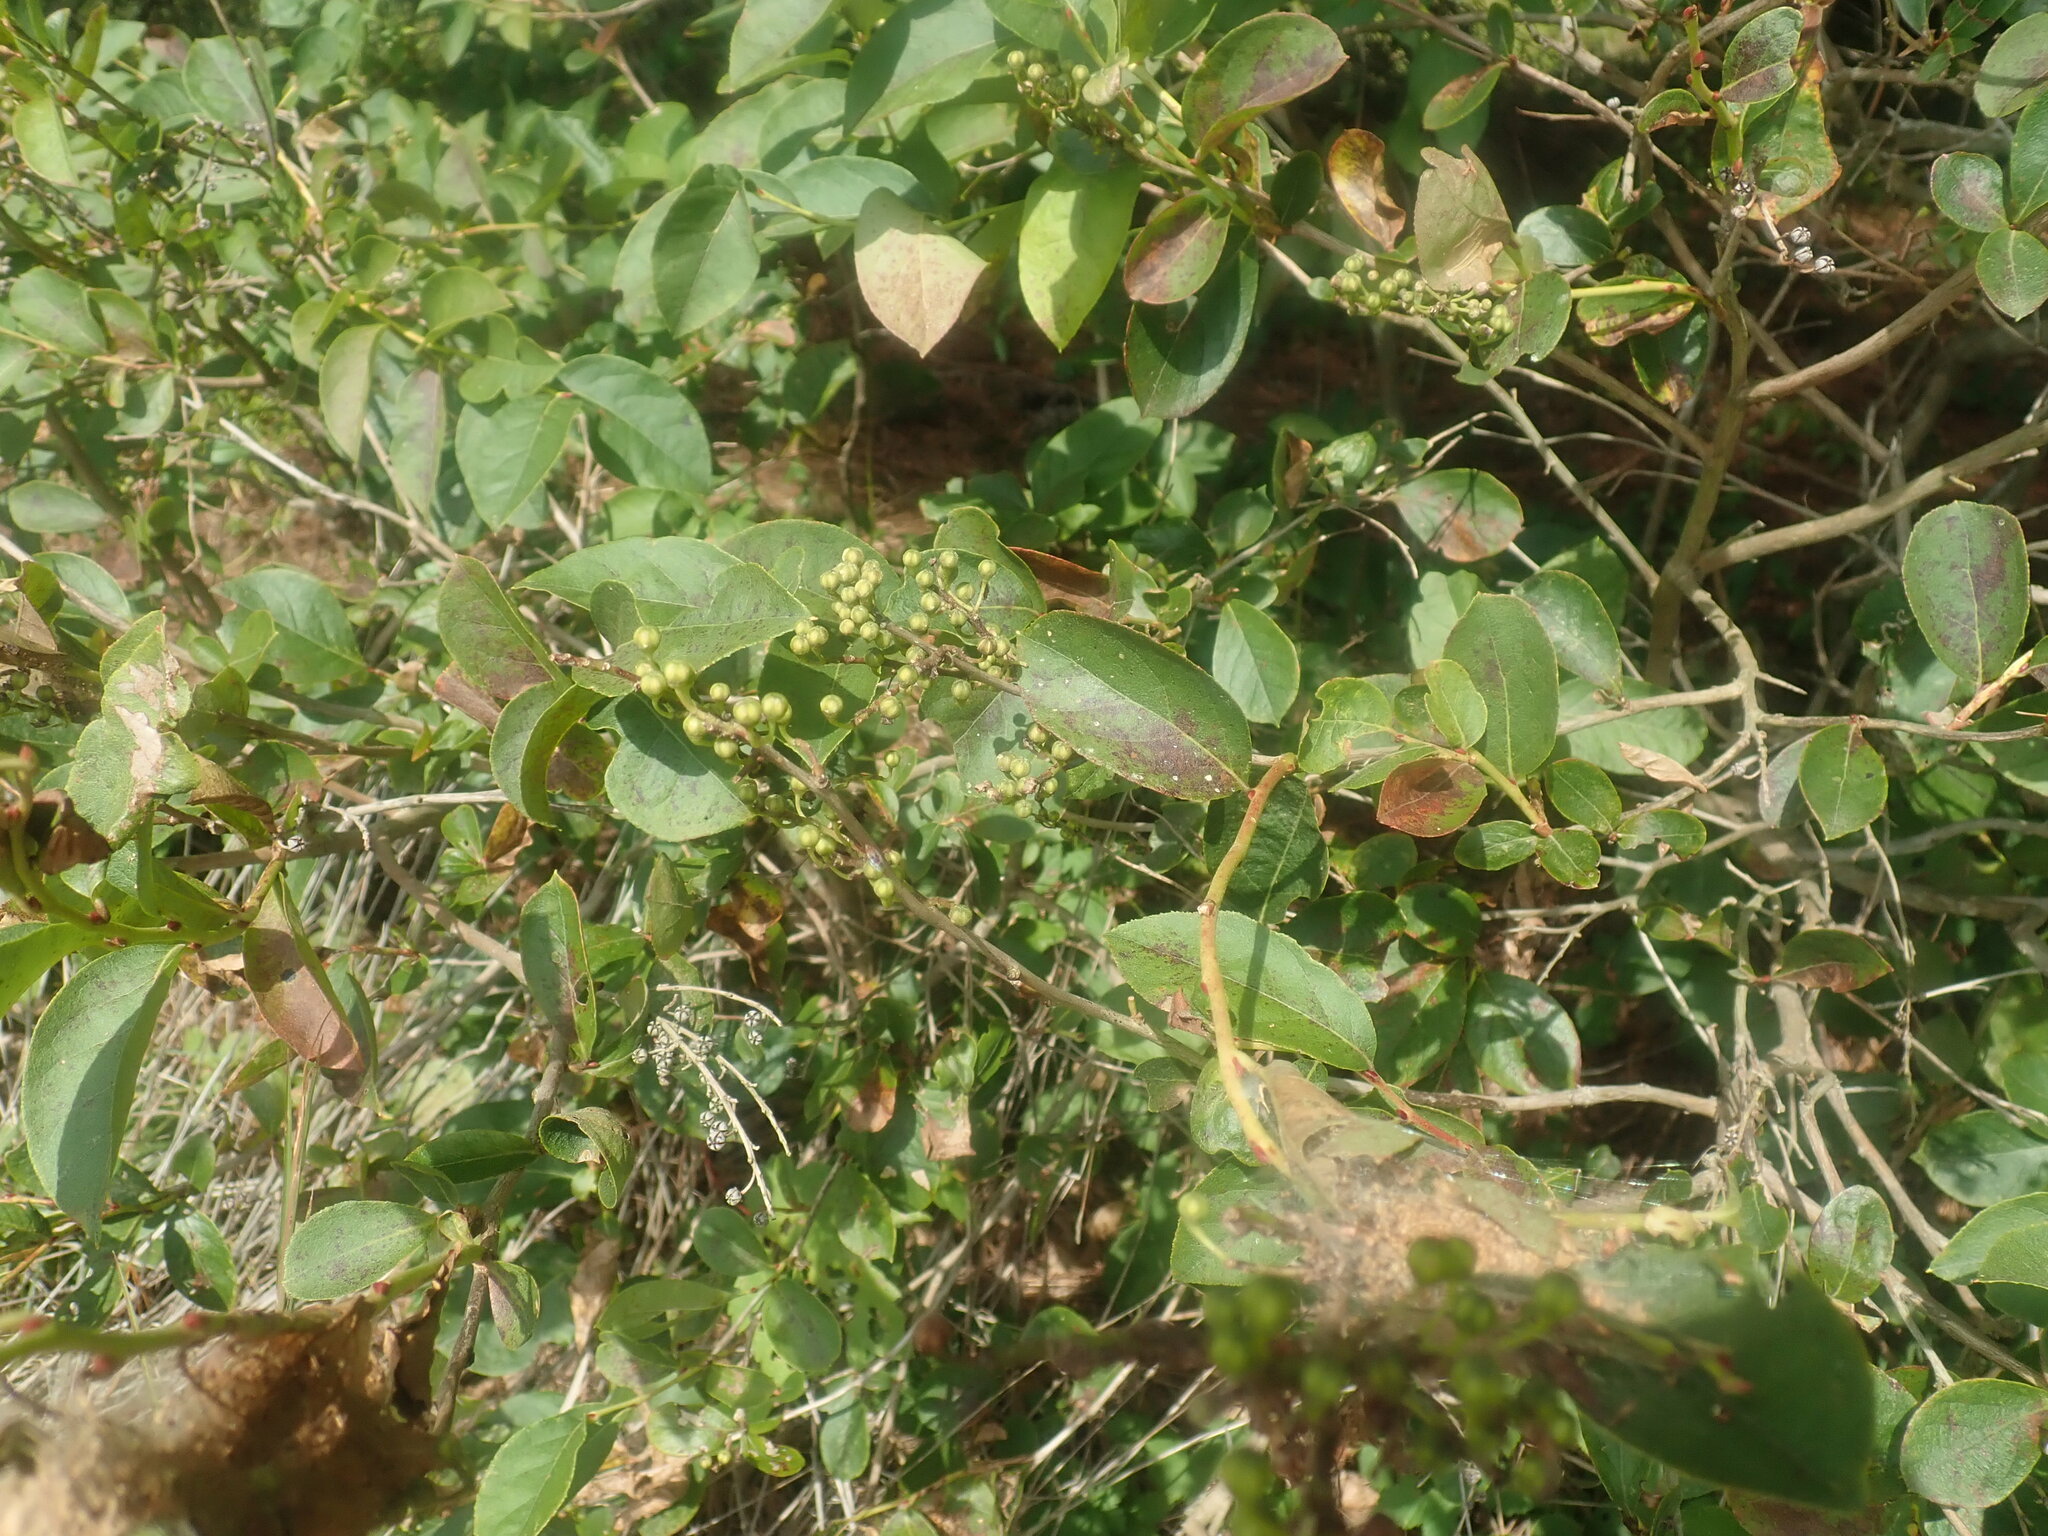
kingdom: Plantae
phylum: Tracheophyta
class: Magnoliopsida
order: Ericales
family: Ericaceae
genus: Lyonia
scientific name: Lyonia ligustrina
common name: Maleberry
